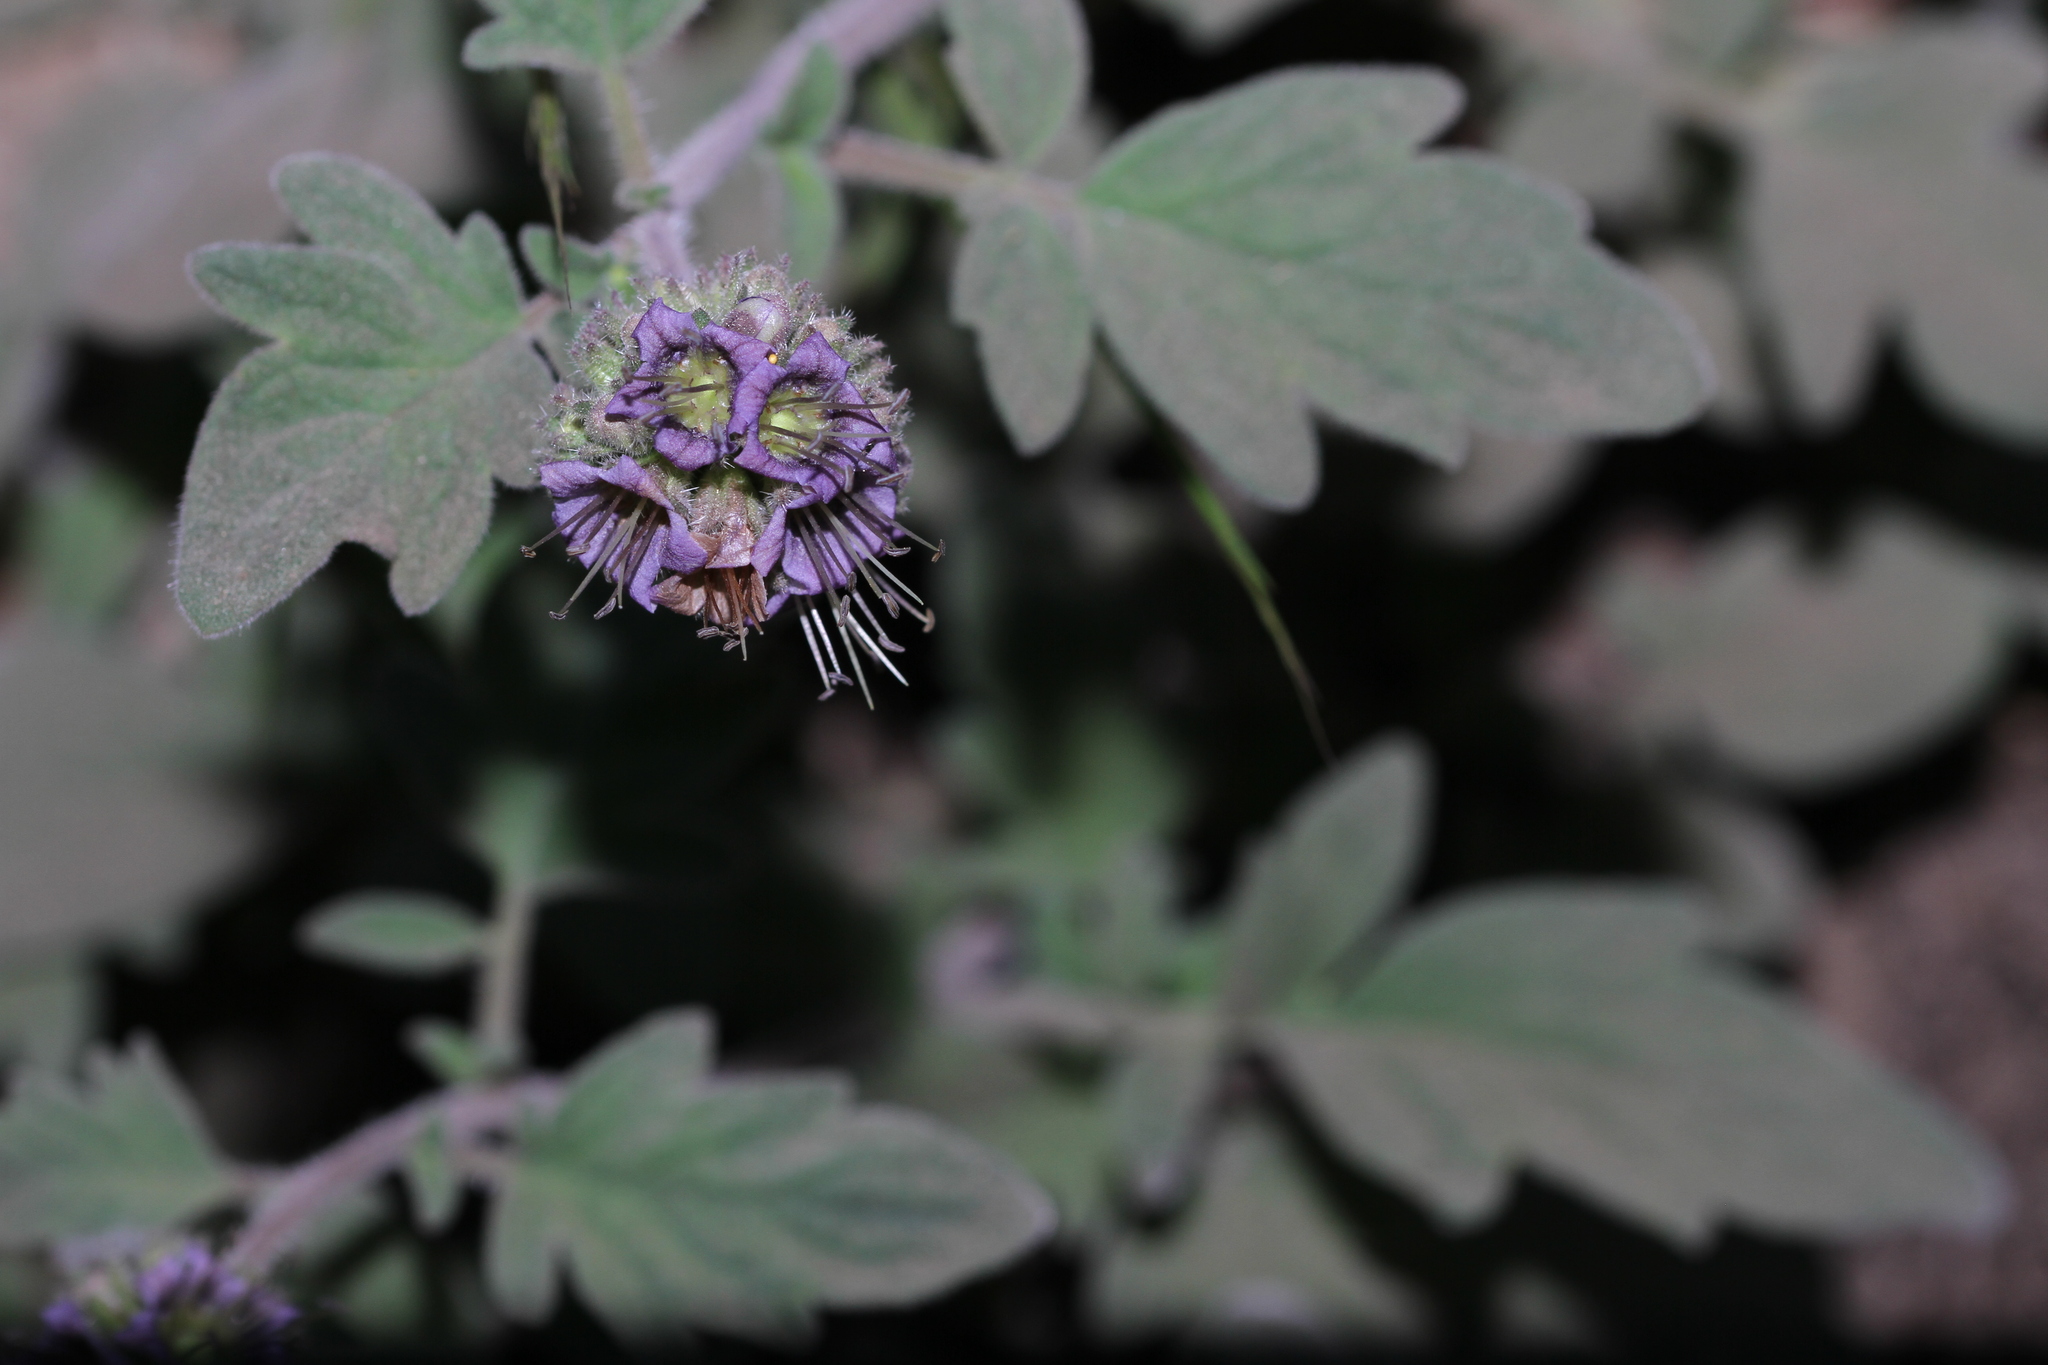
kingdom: Plantae
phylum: Tracheophyta
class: Magnoliopsida
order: Boraginales
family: Hydrophyllaceae
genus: Hydrophyllum
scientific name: Hydrophyllum occidentale
